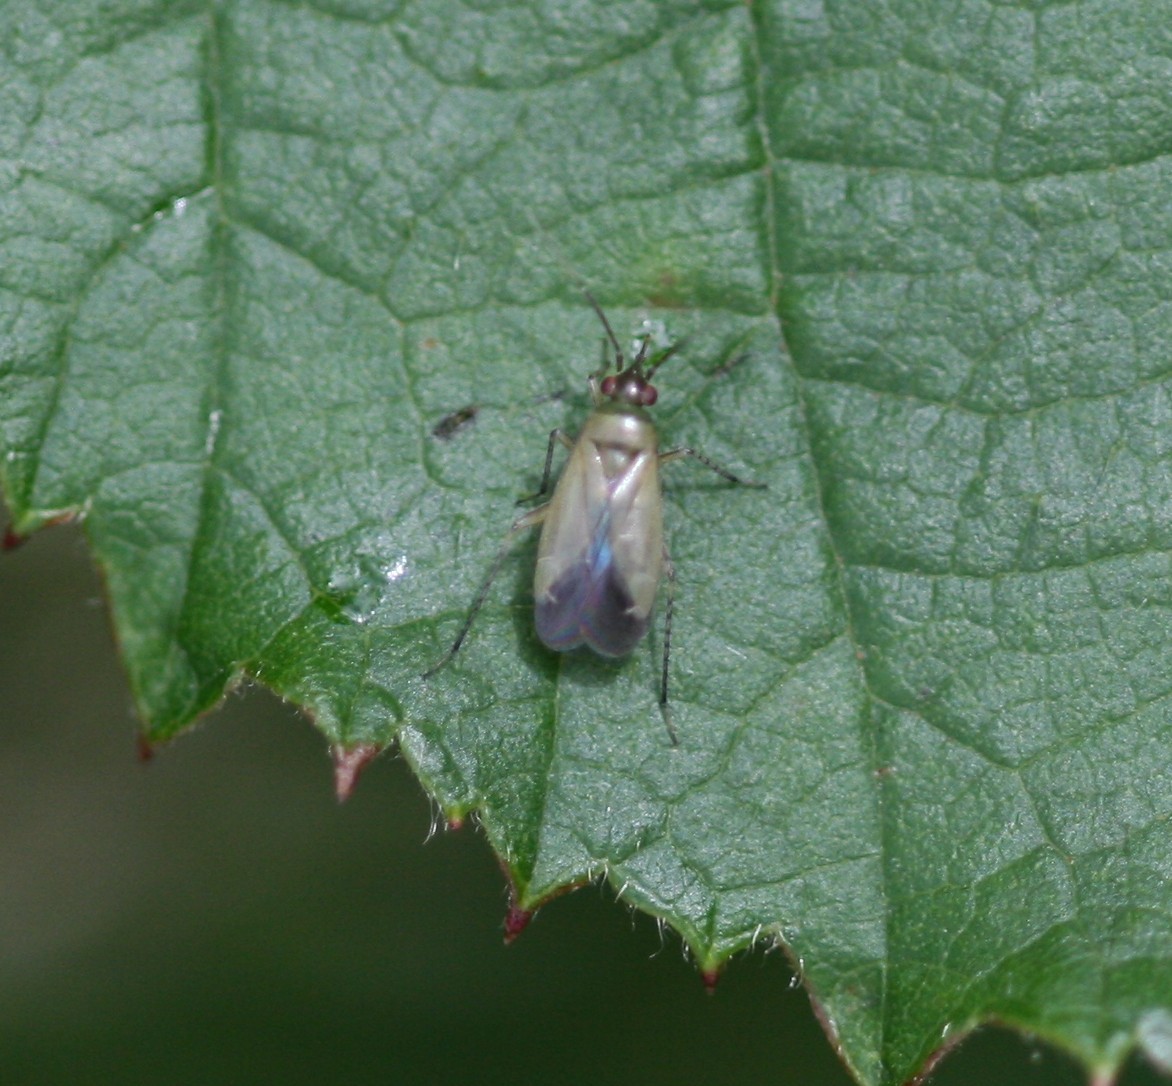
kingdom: Animalia
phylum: Arthropoda
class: Insecta
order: Hemiptera
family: Miridae
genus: Plagiognathus
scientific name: Plagiognathus arbustorum
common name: Plant bug
